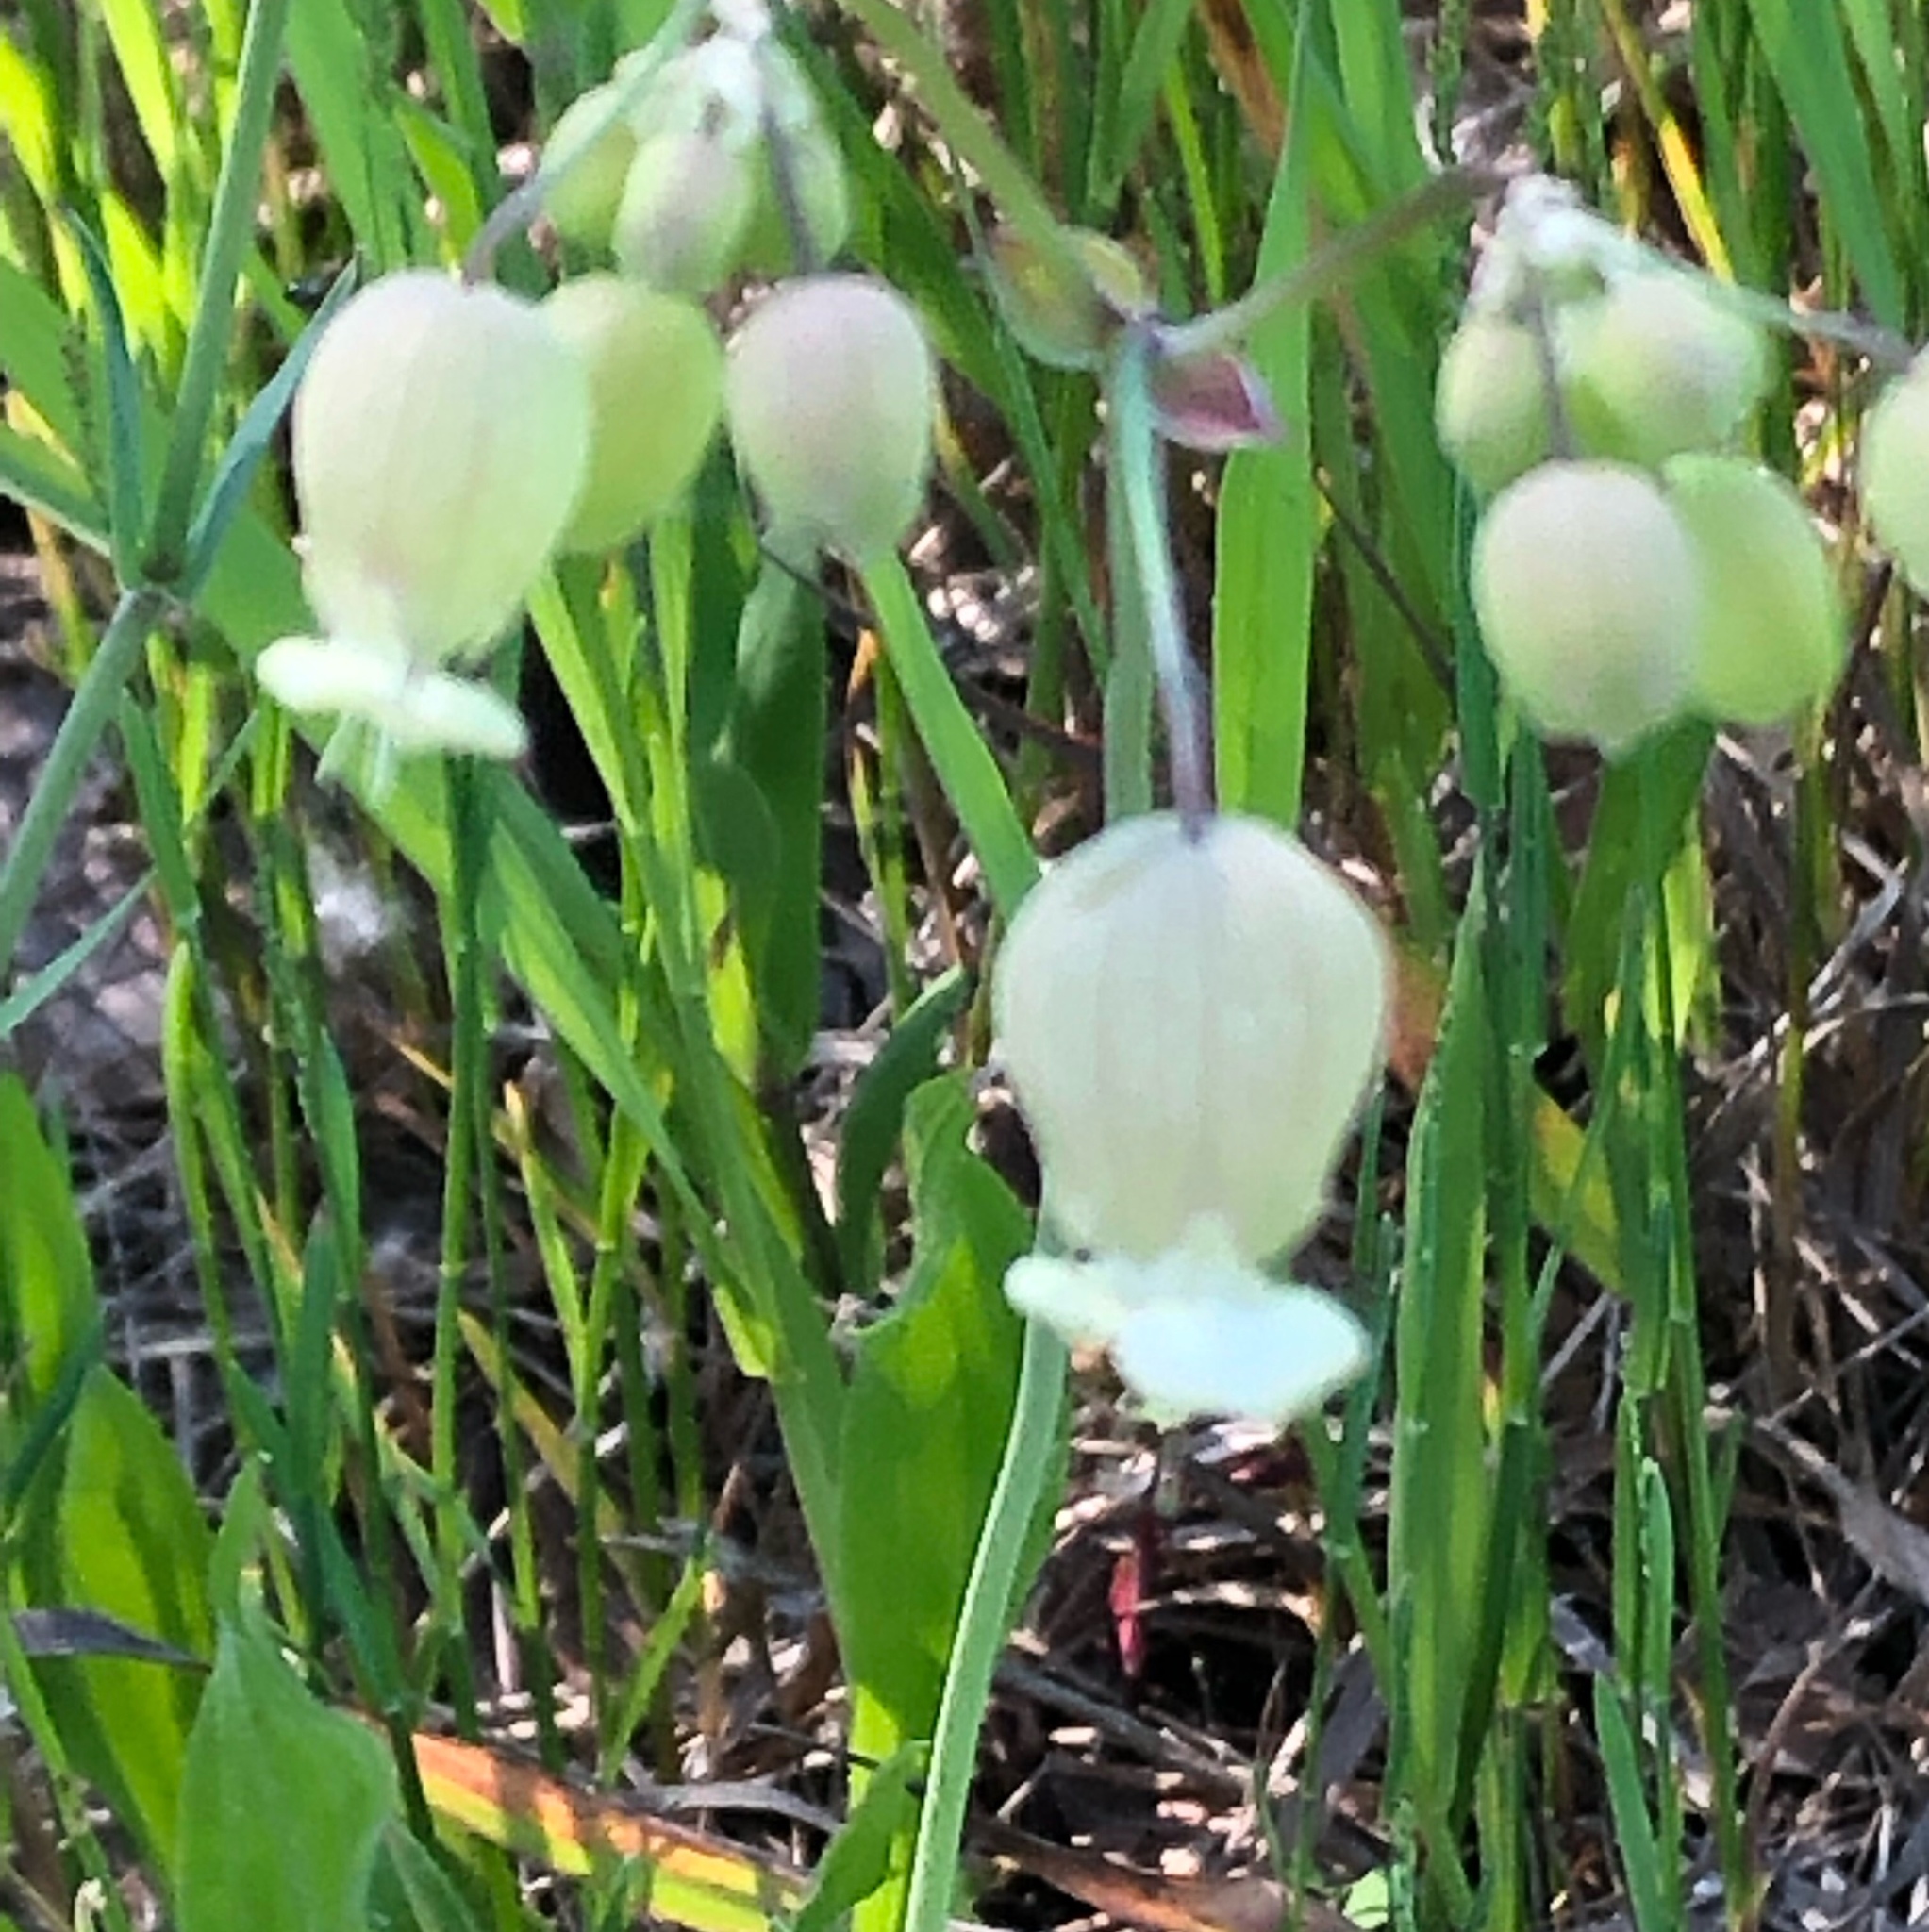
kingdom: Plantae
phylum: Tracheophyta
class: Magnoliopsida
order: Caryophyllales
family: Caryophyllaceae
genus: Silene
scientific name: Silene vulgaris
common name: Bladder campion
